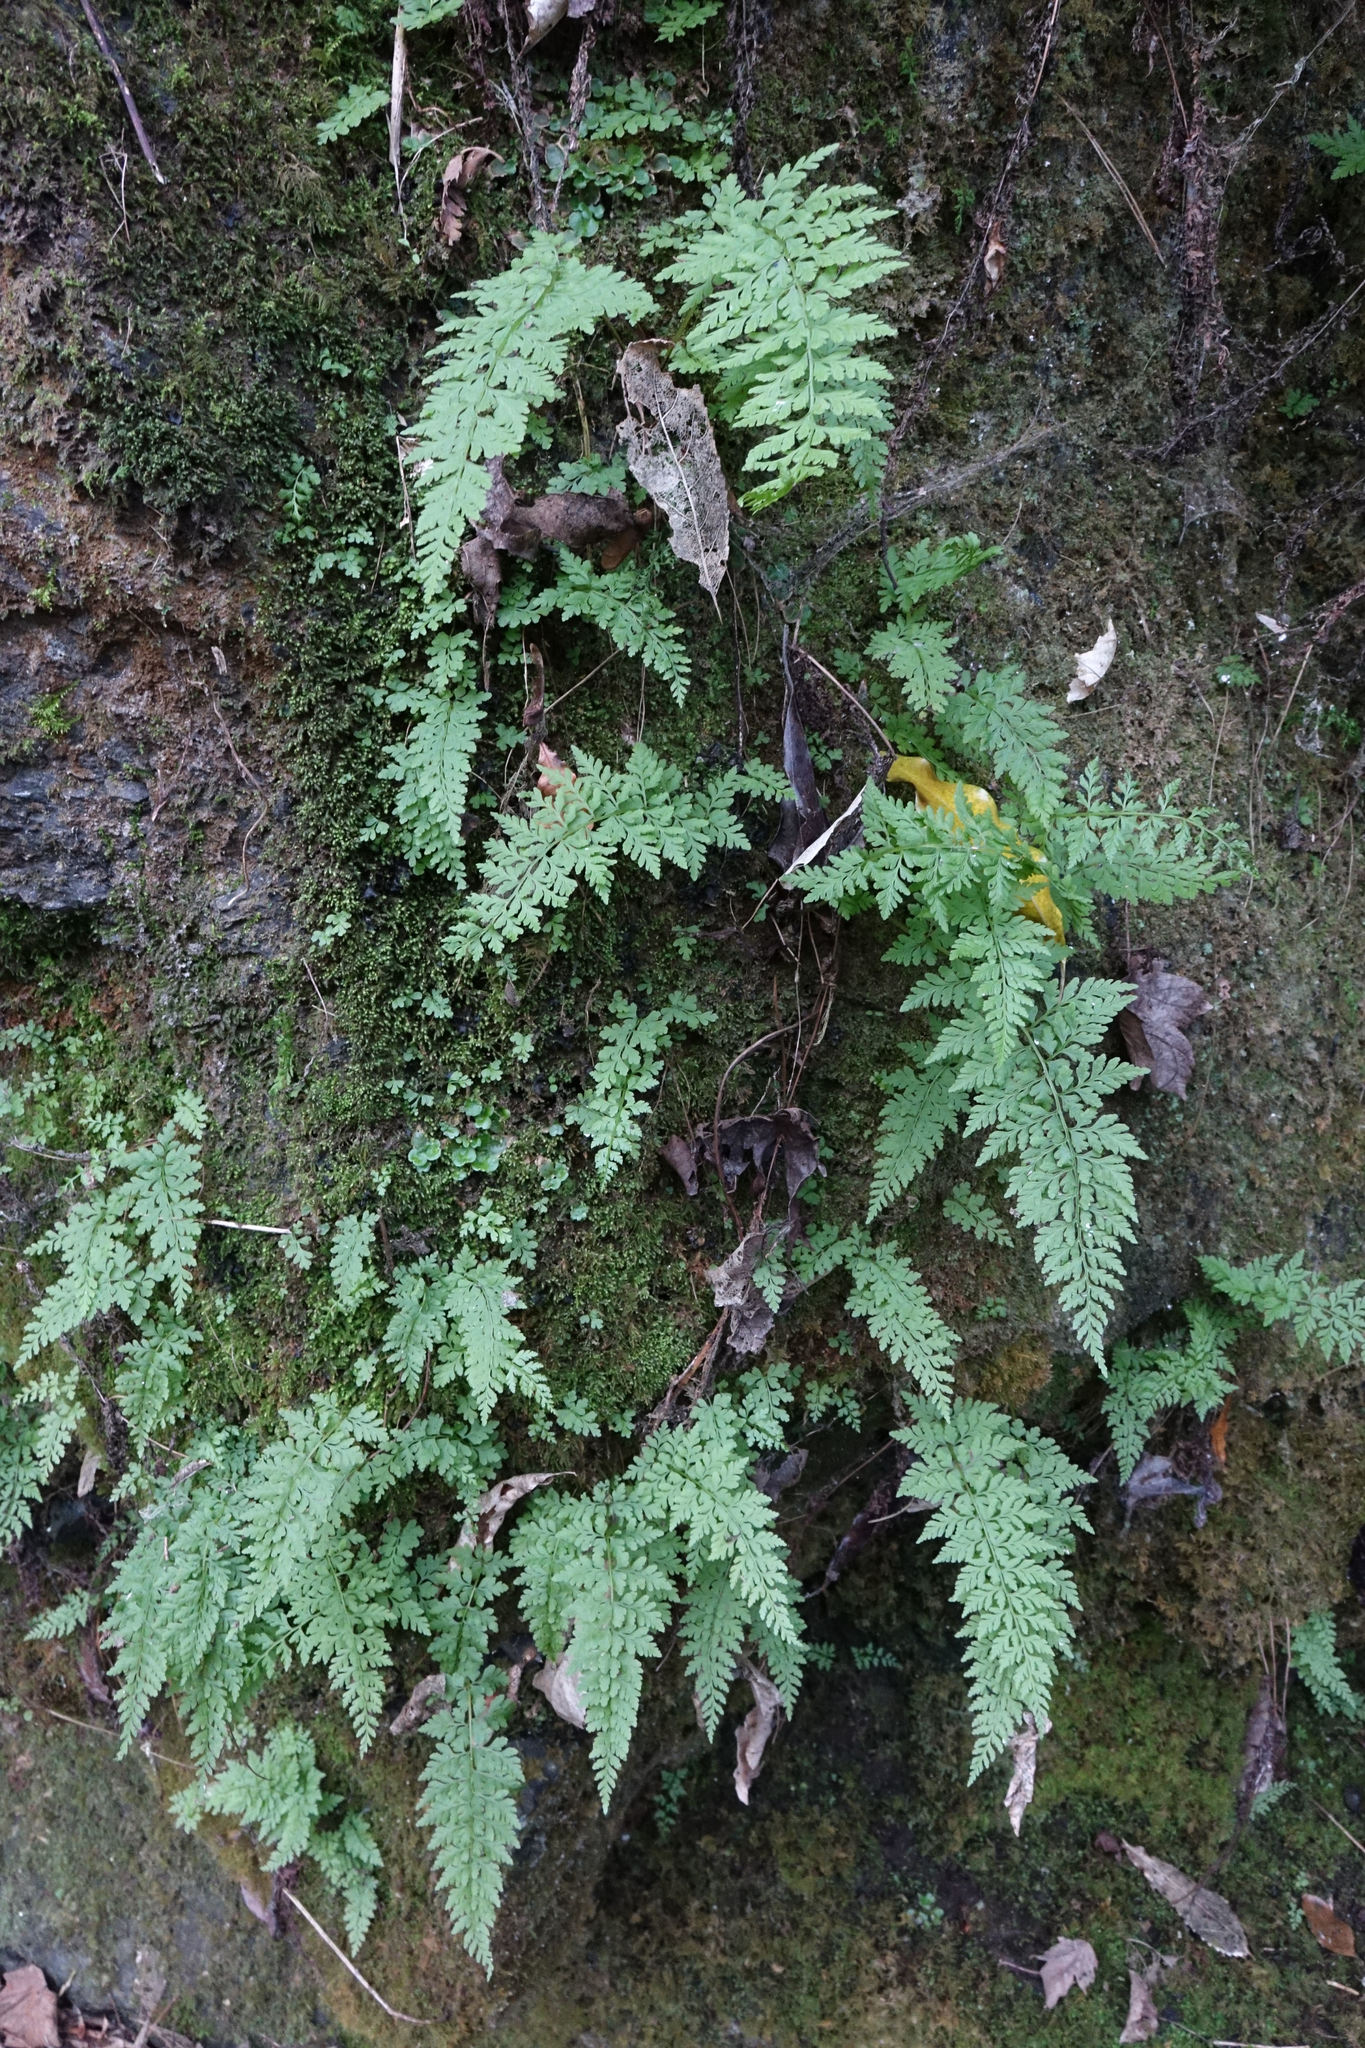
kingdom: Plantae
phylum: Tracheophyta
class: Polypodiopsida
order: Polypodiales
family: Cystopteridaceae
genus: Cystopteris
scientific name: Cystopteris fragilis
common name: Brittle bladder fern
